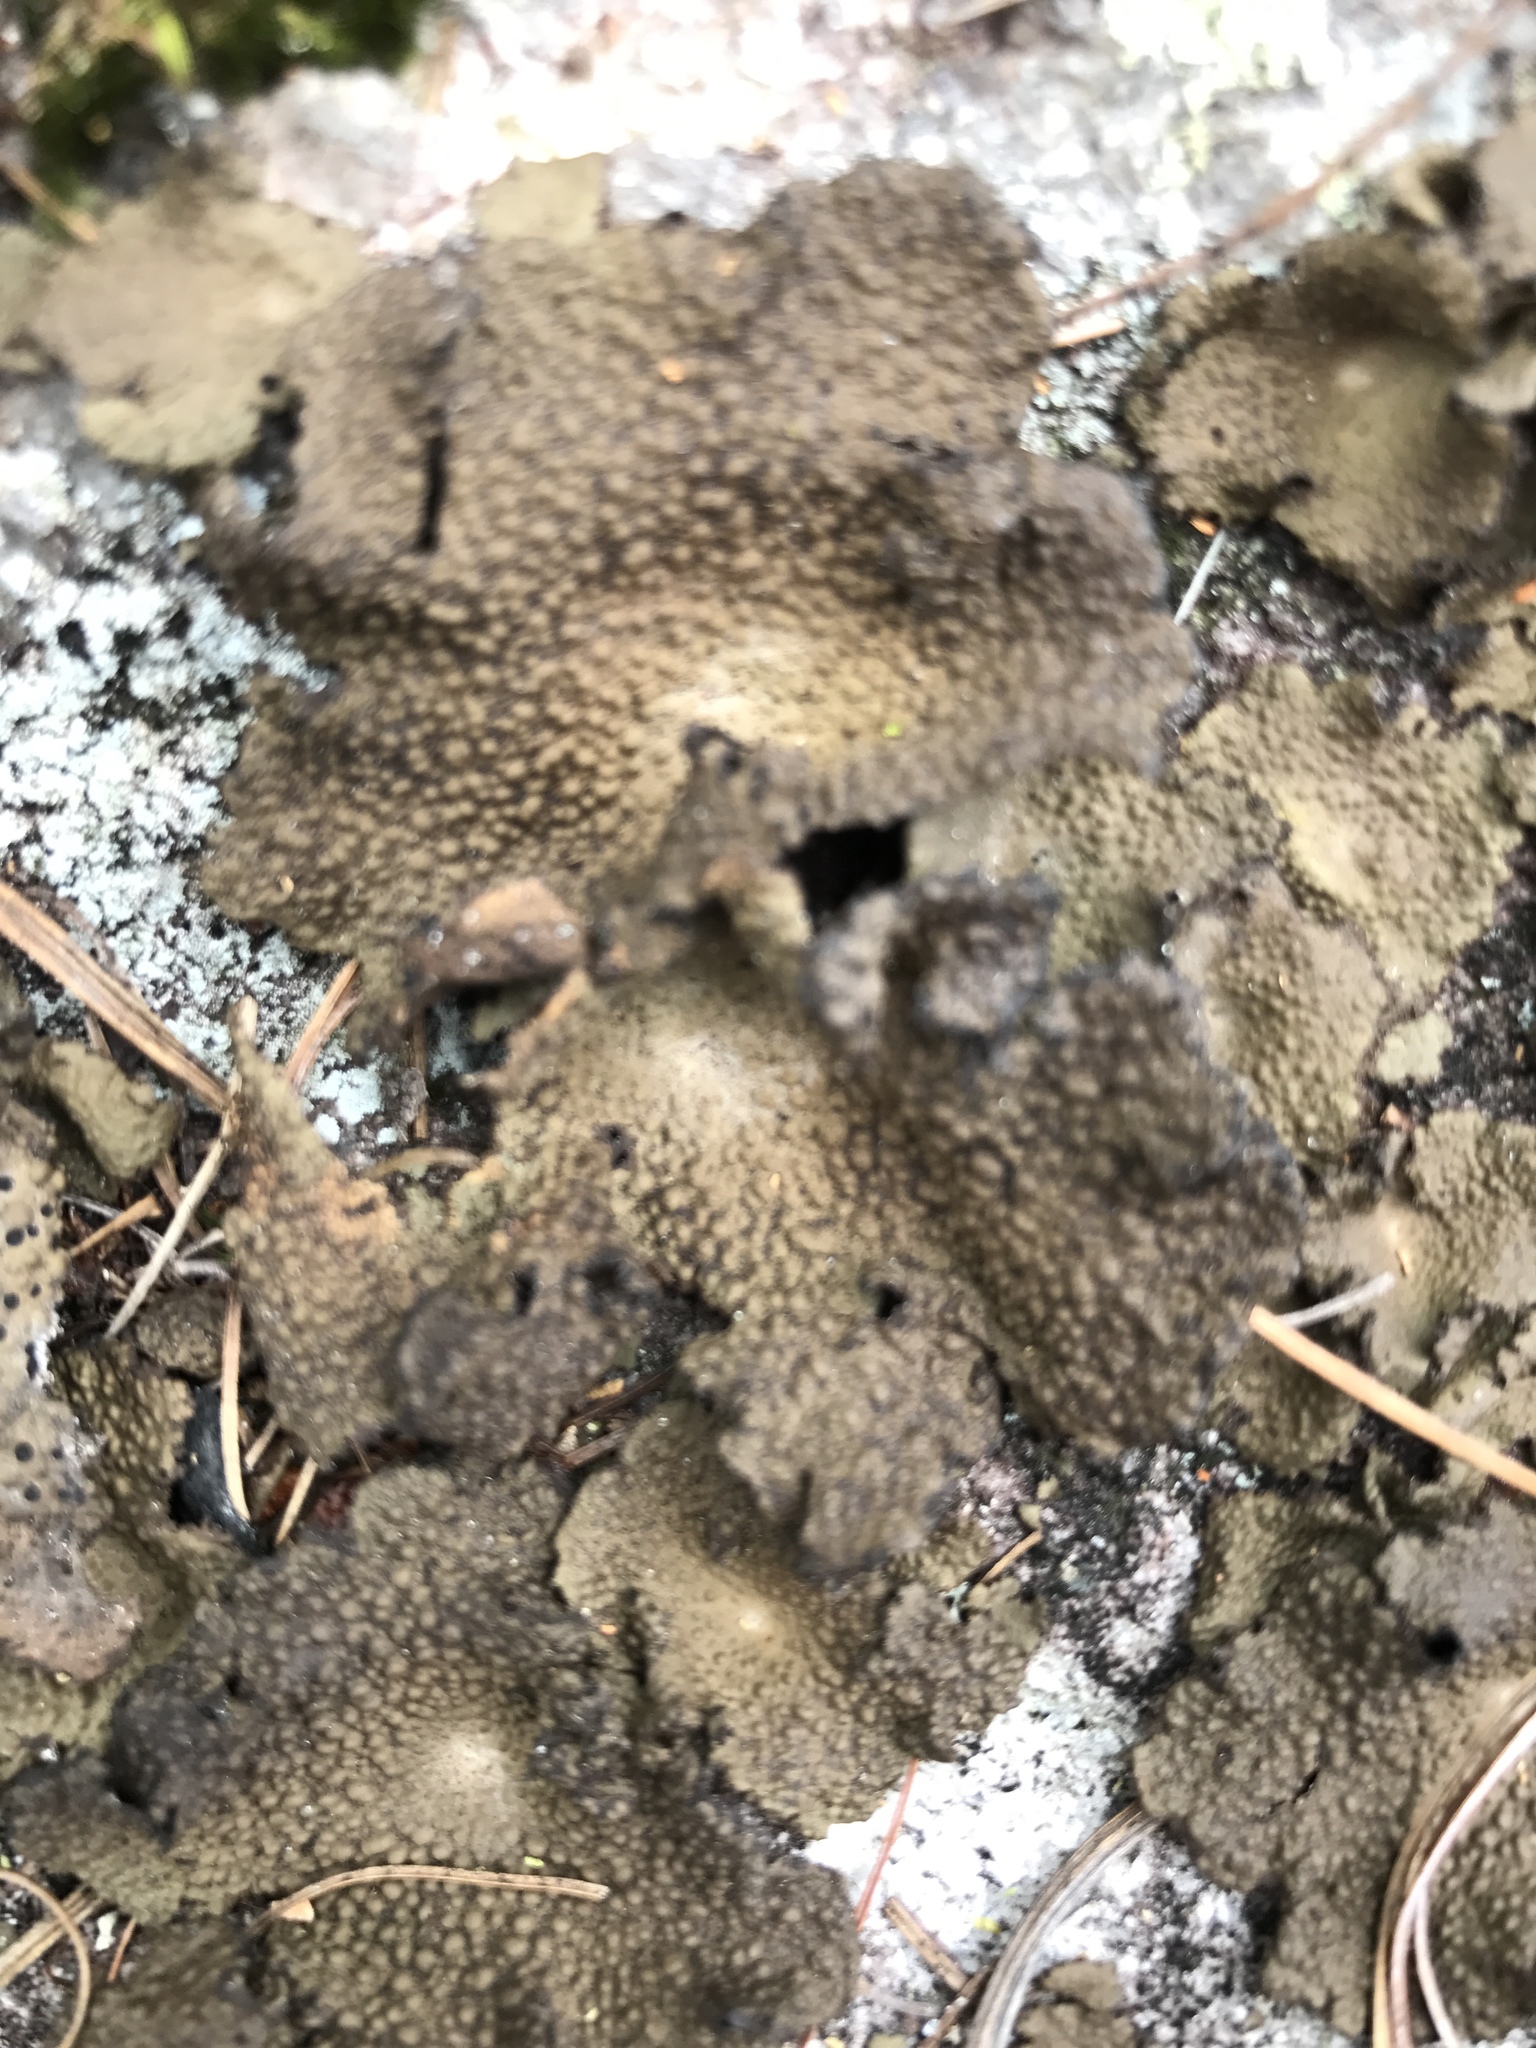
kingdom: Fungi
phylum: Ascomycota
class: Lecanoromycetes
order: Umbilicariales
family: Umbilicariaceae
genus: Lasallia
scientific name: Lasallia papulosa
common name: Common toadskin lichen
